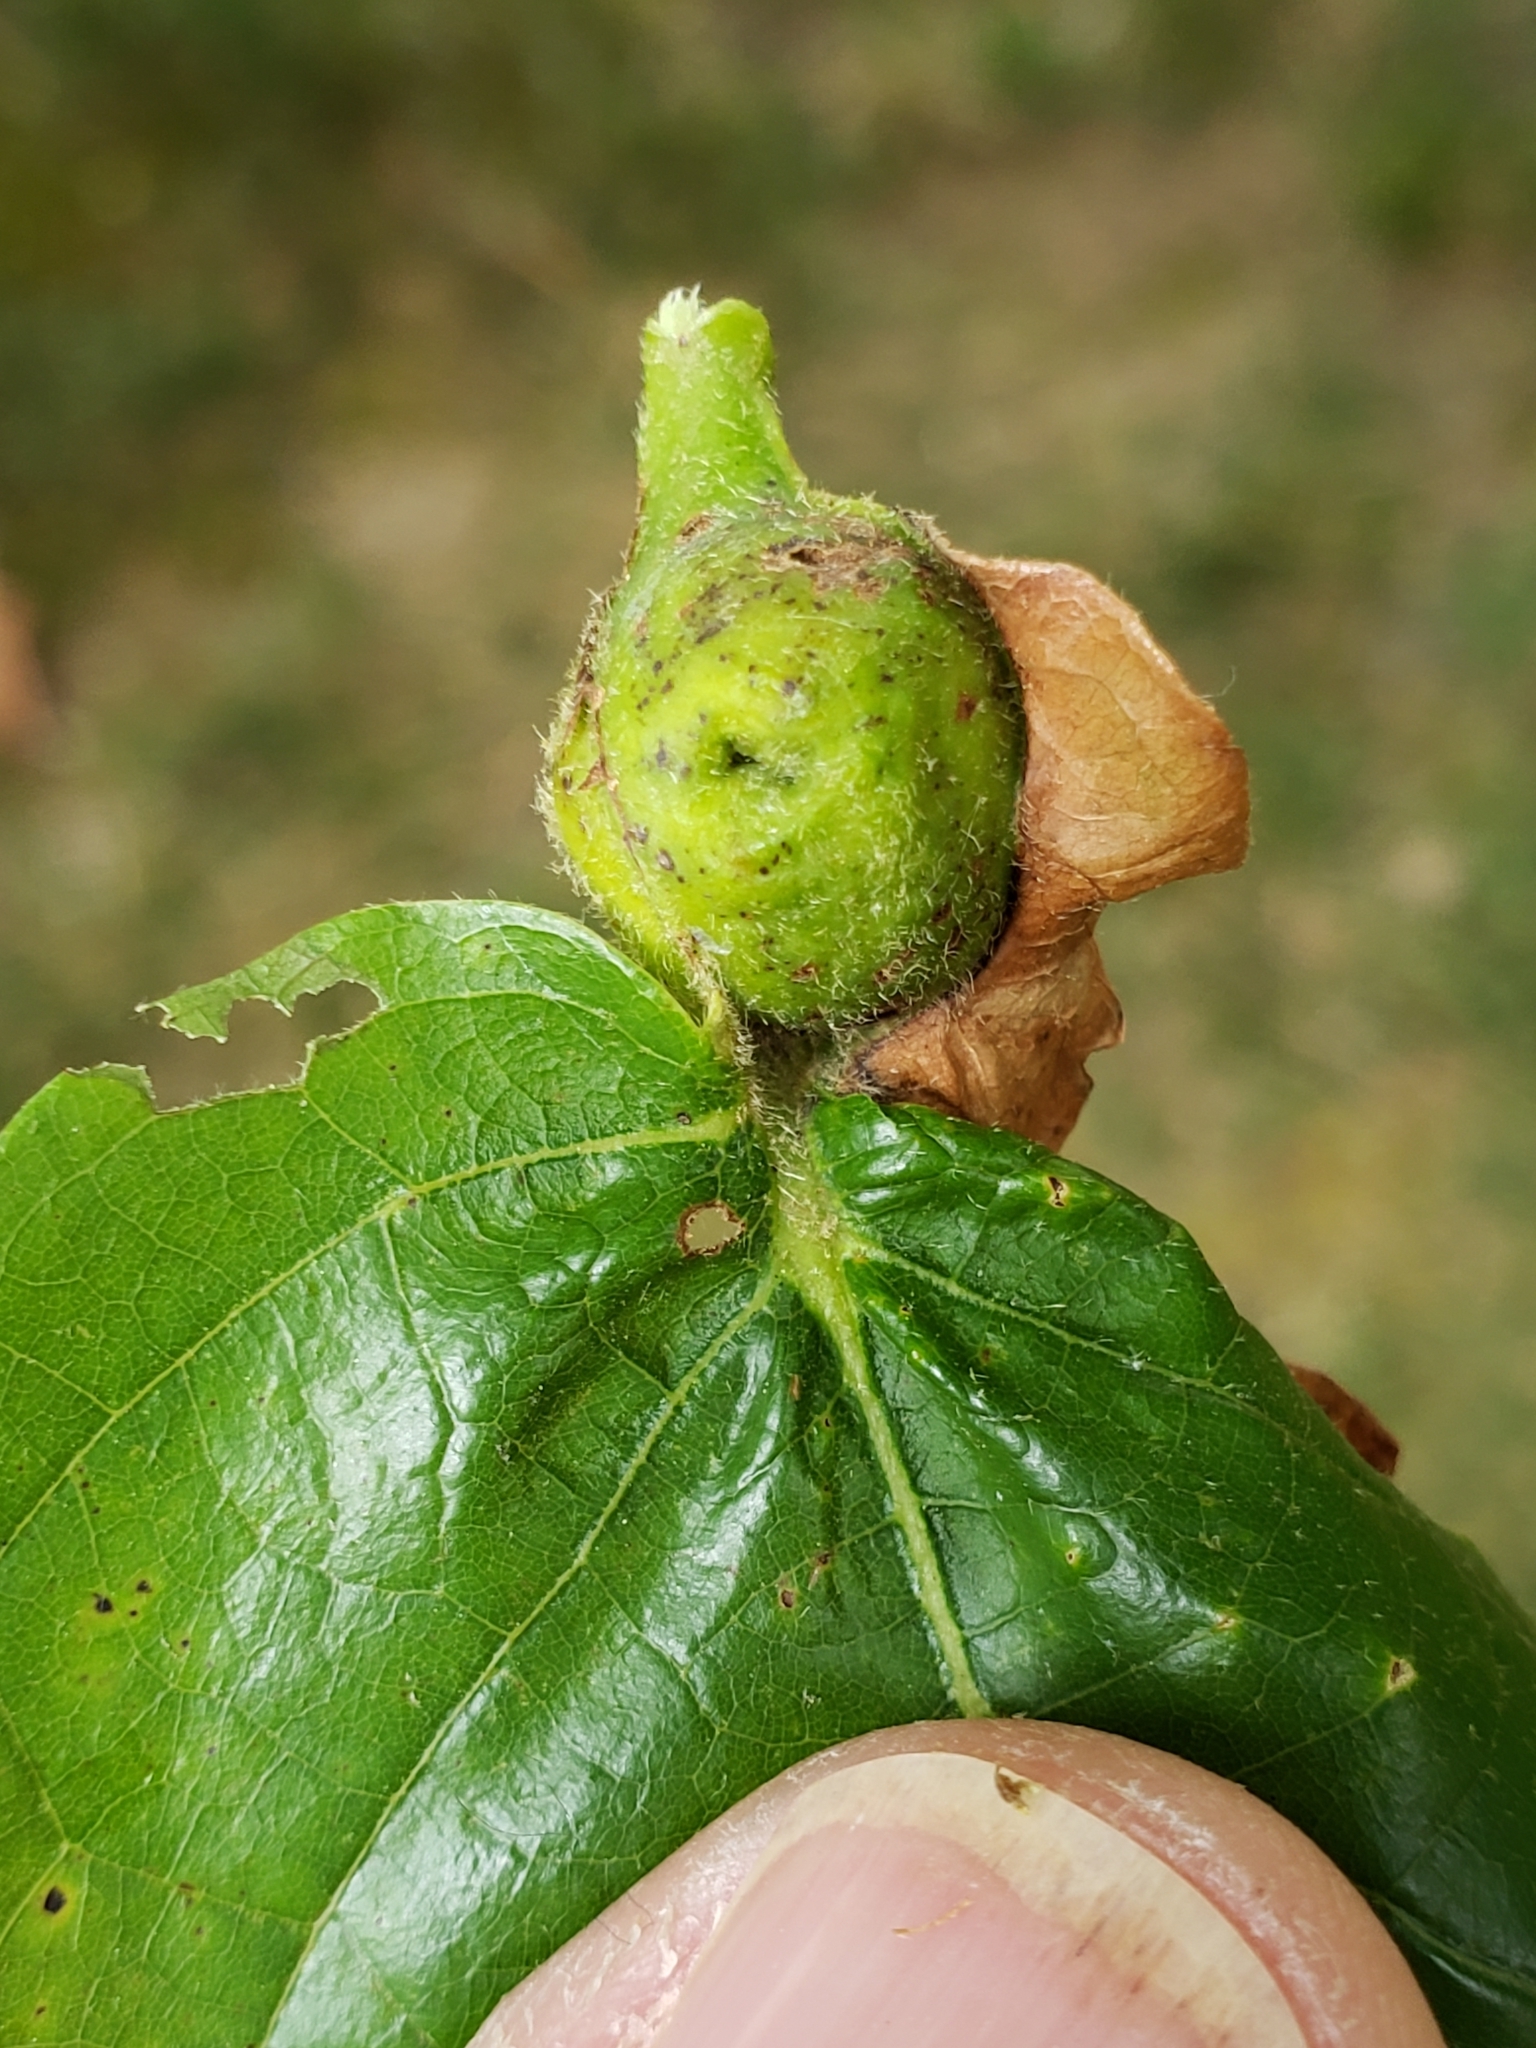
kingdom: Animalia
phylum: Arthropoda
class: Insecta
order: Hymenoptera
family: Cynipidae
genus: Andricus
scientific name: Andricus
